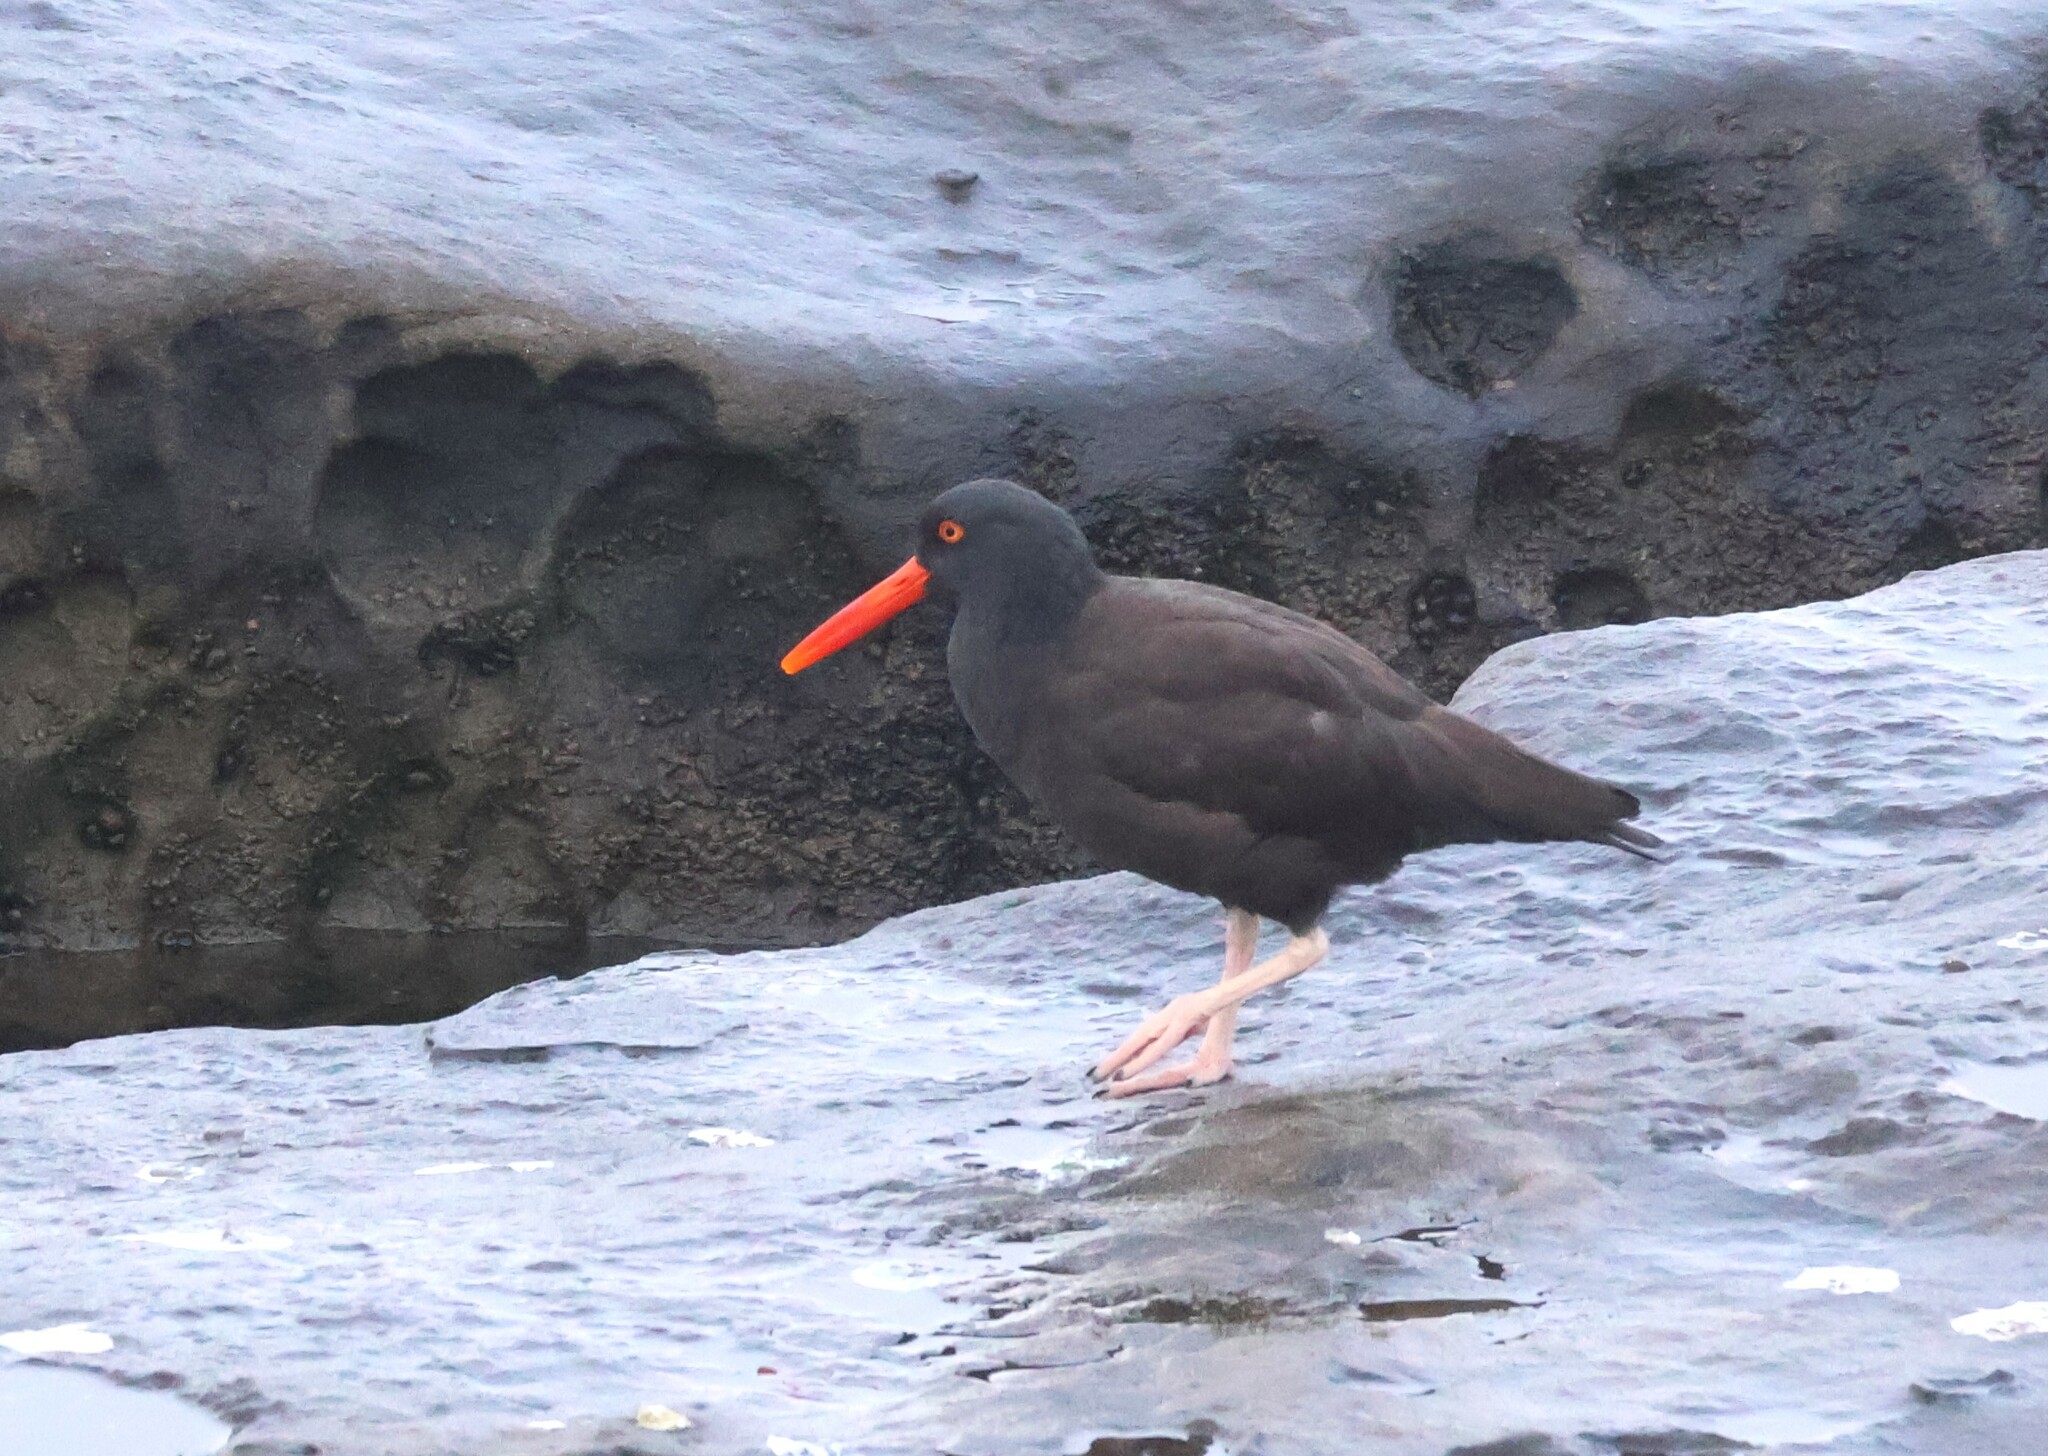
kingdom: Animalia
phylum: Chordata
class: Aves
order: Charadriiformes
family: Haematopodidae
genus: Haematopus
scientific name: Haematopus bachmani
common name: Black oystercatcher
